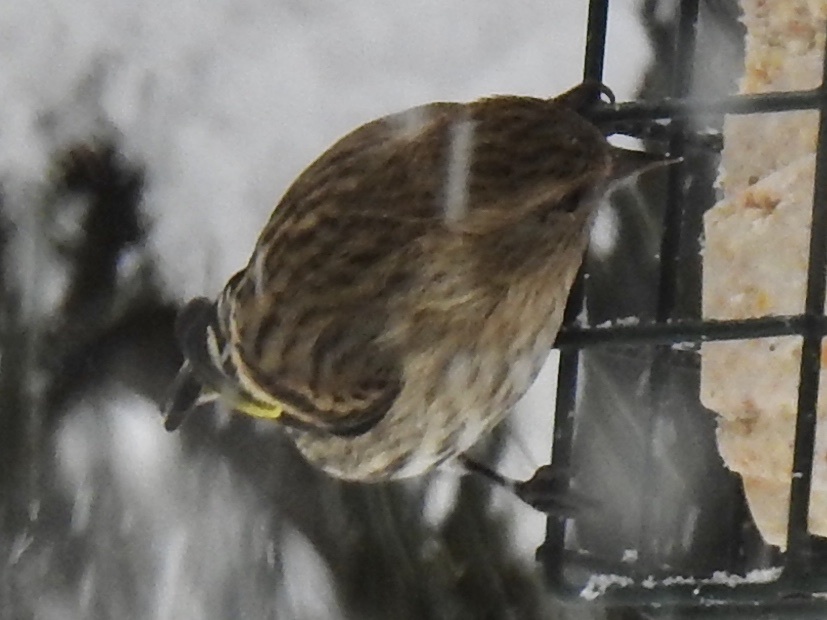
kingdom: Animalia
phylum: Chordata
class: Aves
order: Passeriformes
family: Fringillidae
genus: Spinus
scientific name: Spinus pinus
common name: Pine siskin
